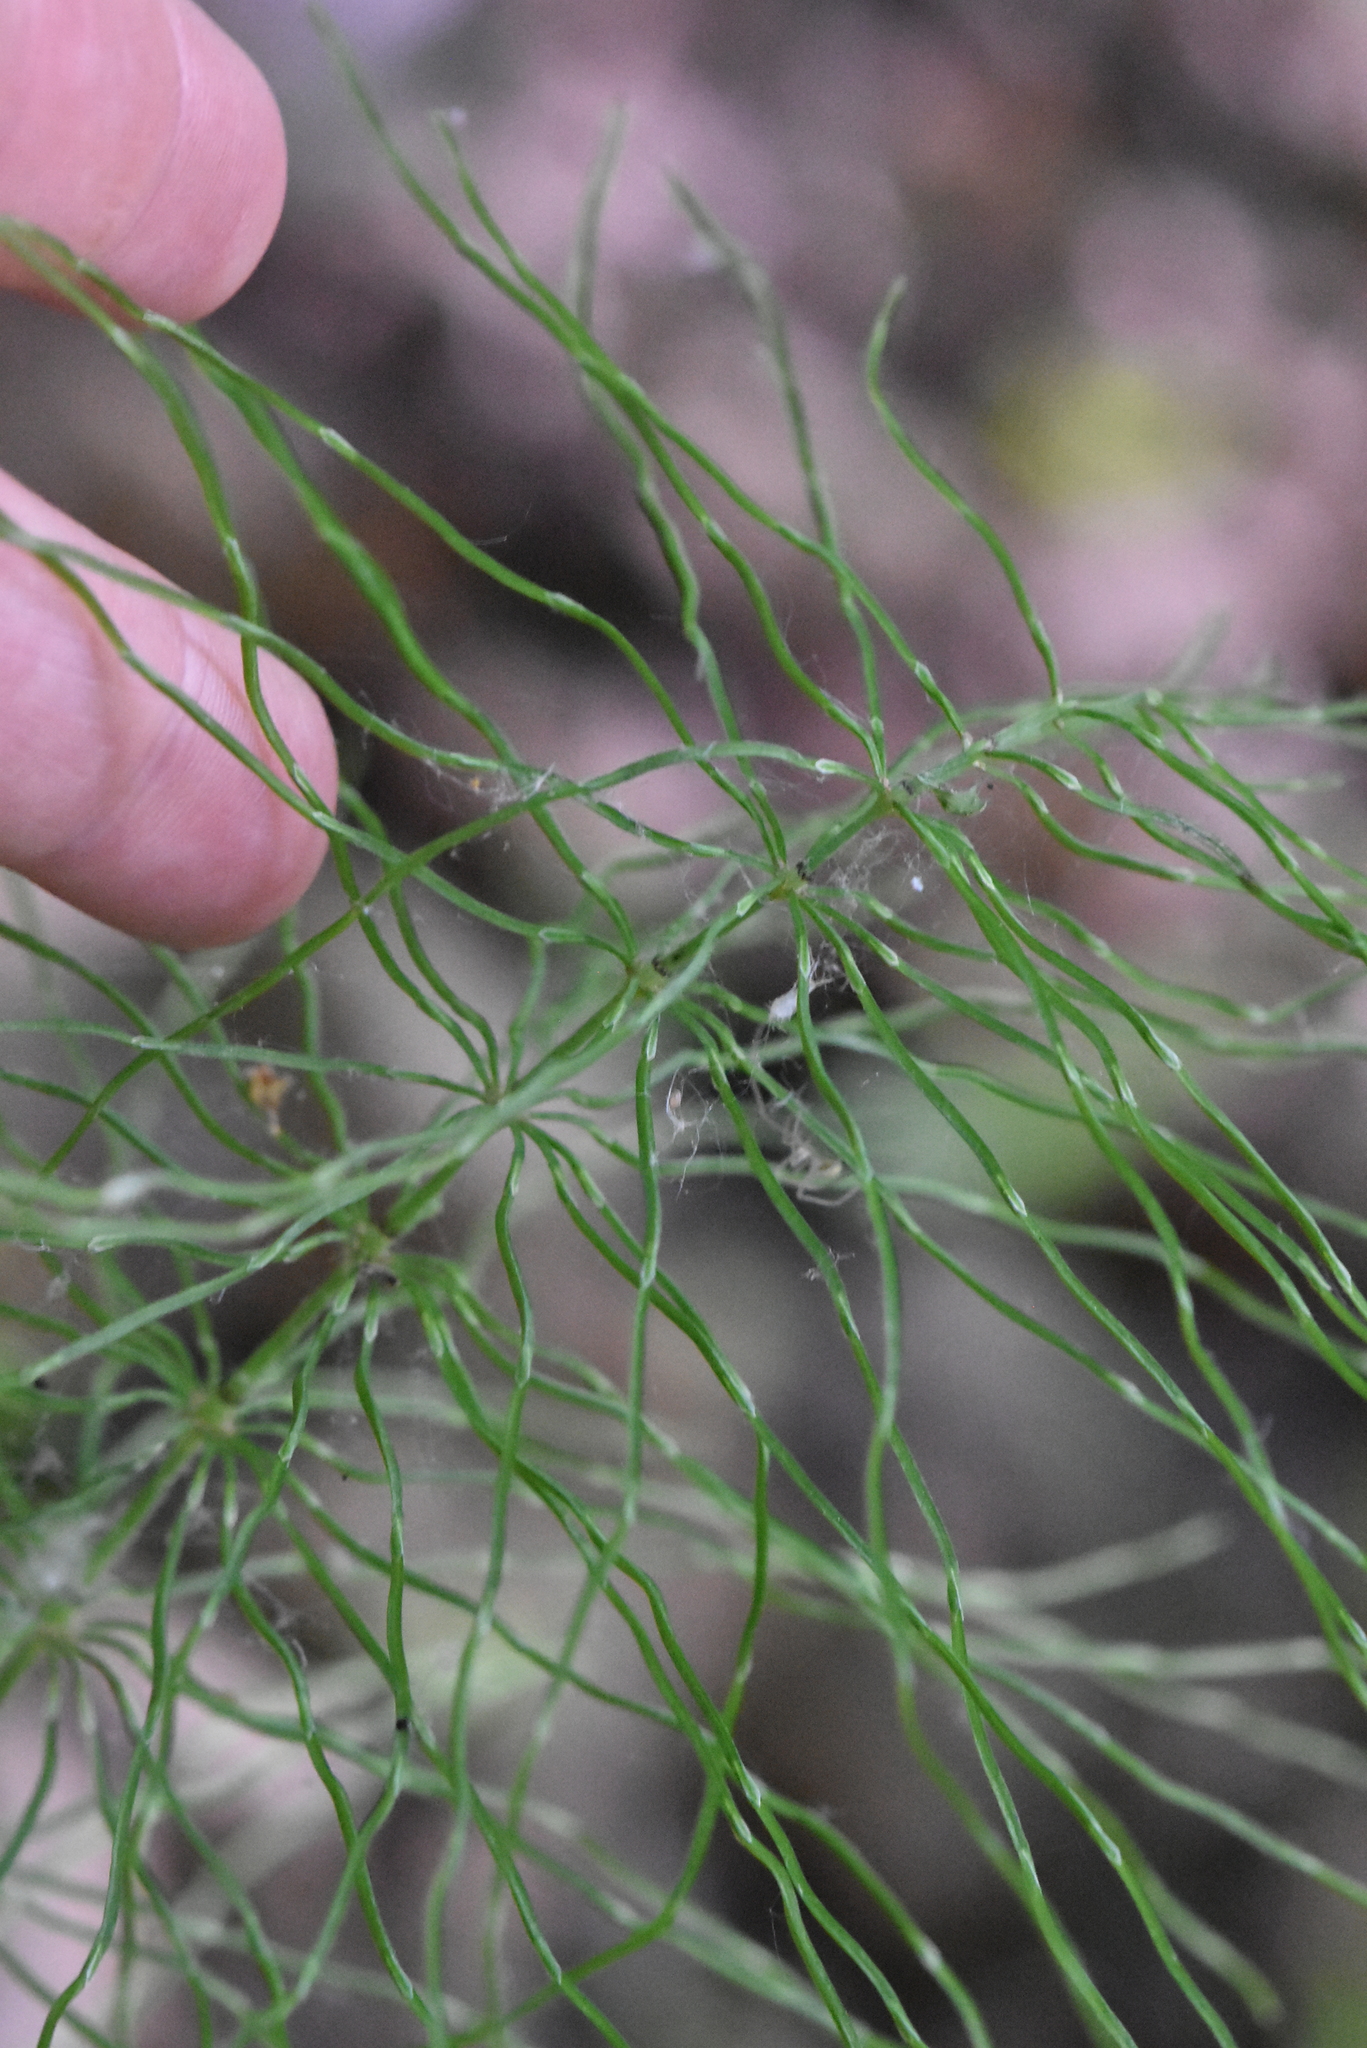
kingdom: Plantae
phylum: Tracheophyta
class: Polypodiopsida
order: Equisetales
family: Equisetaceae
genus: Equisetum
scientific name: Equisetum pratense
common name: Meadow horsetail
